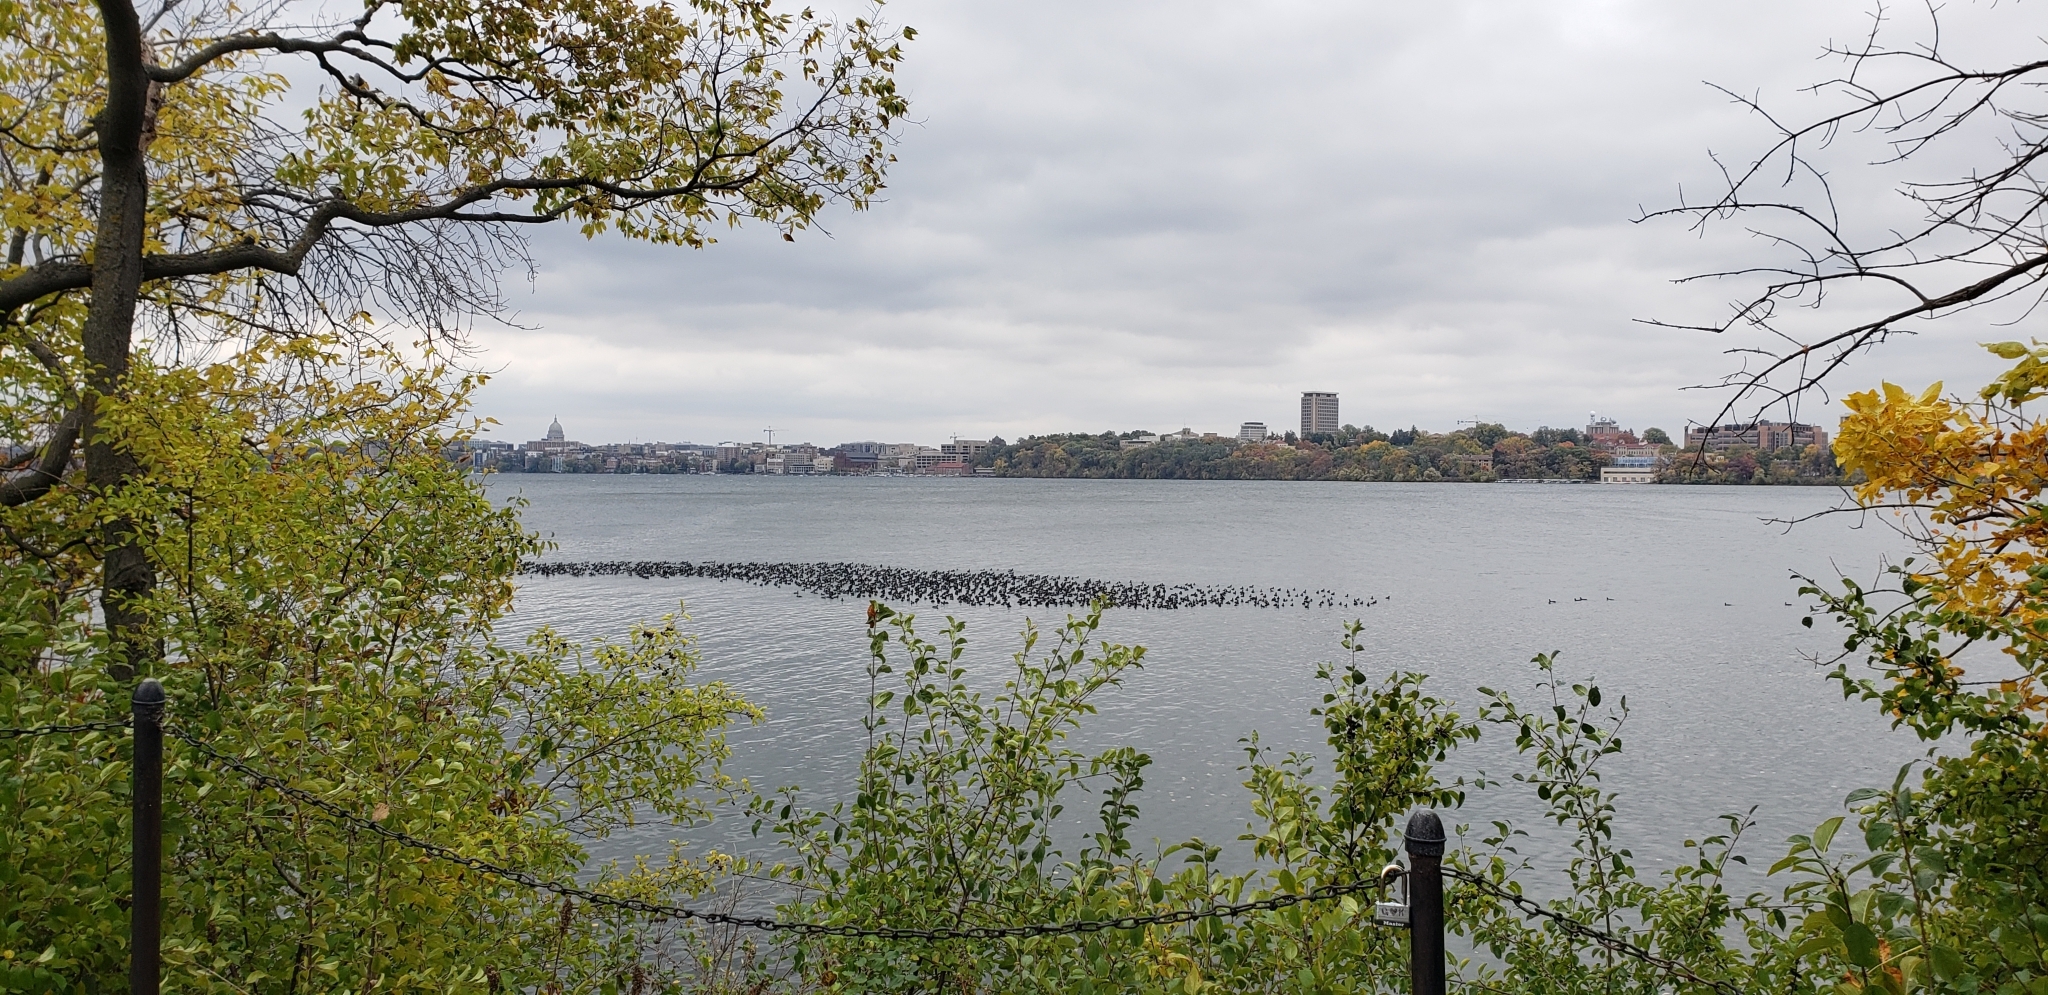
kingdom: Animalia
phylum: Chordata
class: Aves
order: Gruiformes
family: Rallidae
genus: Fulica
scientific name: Fulica americana
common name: American coot
